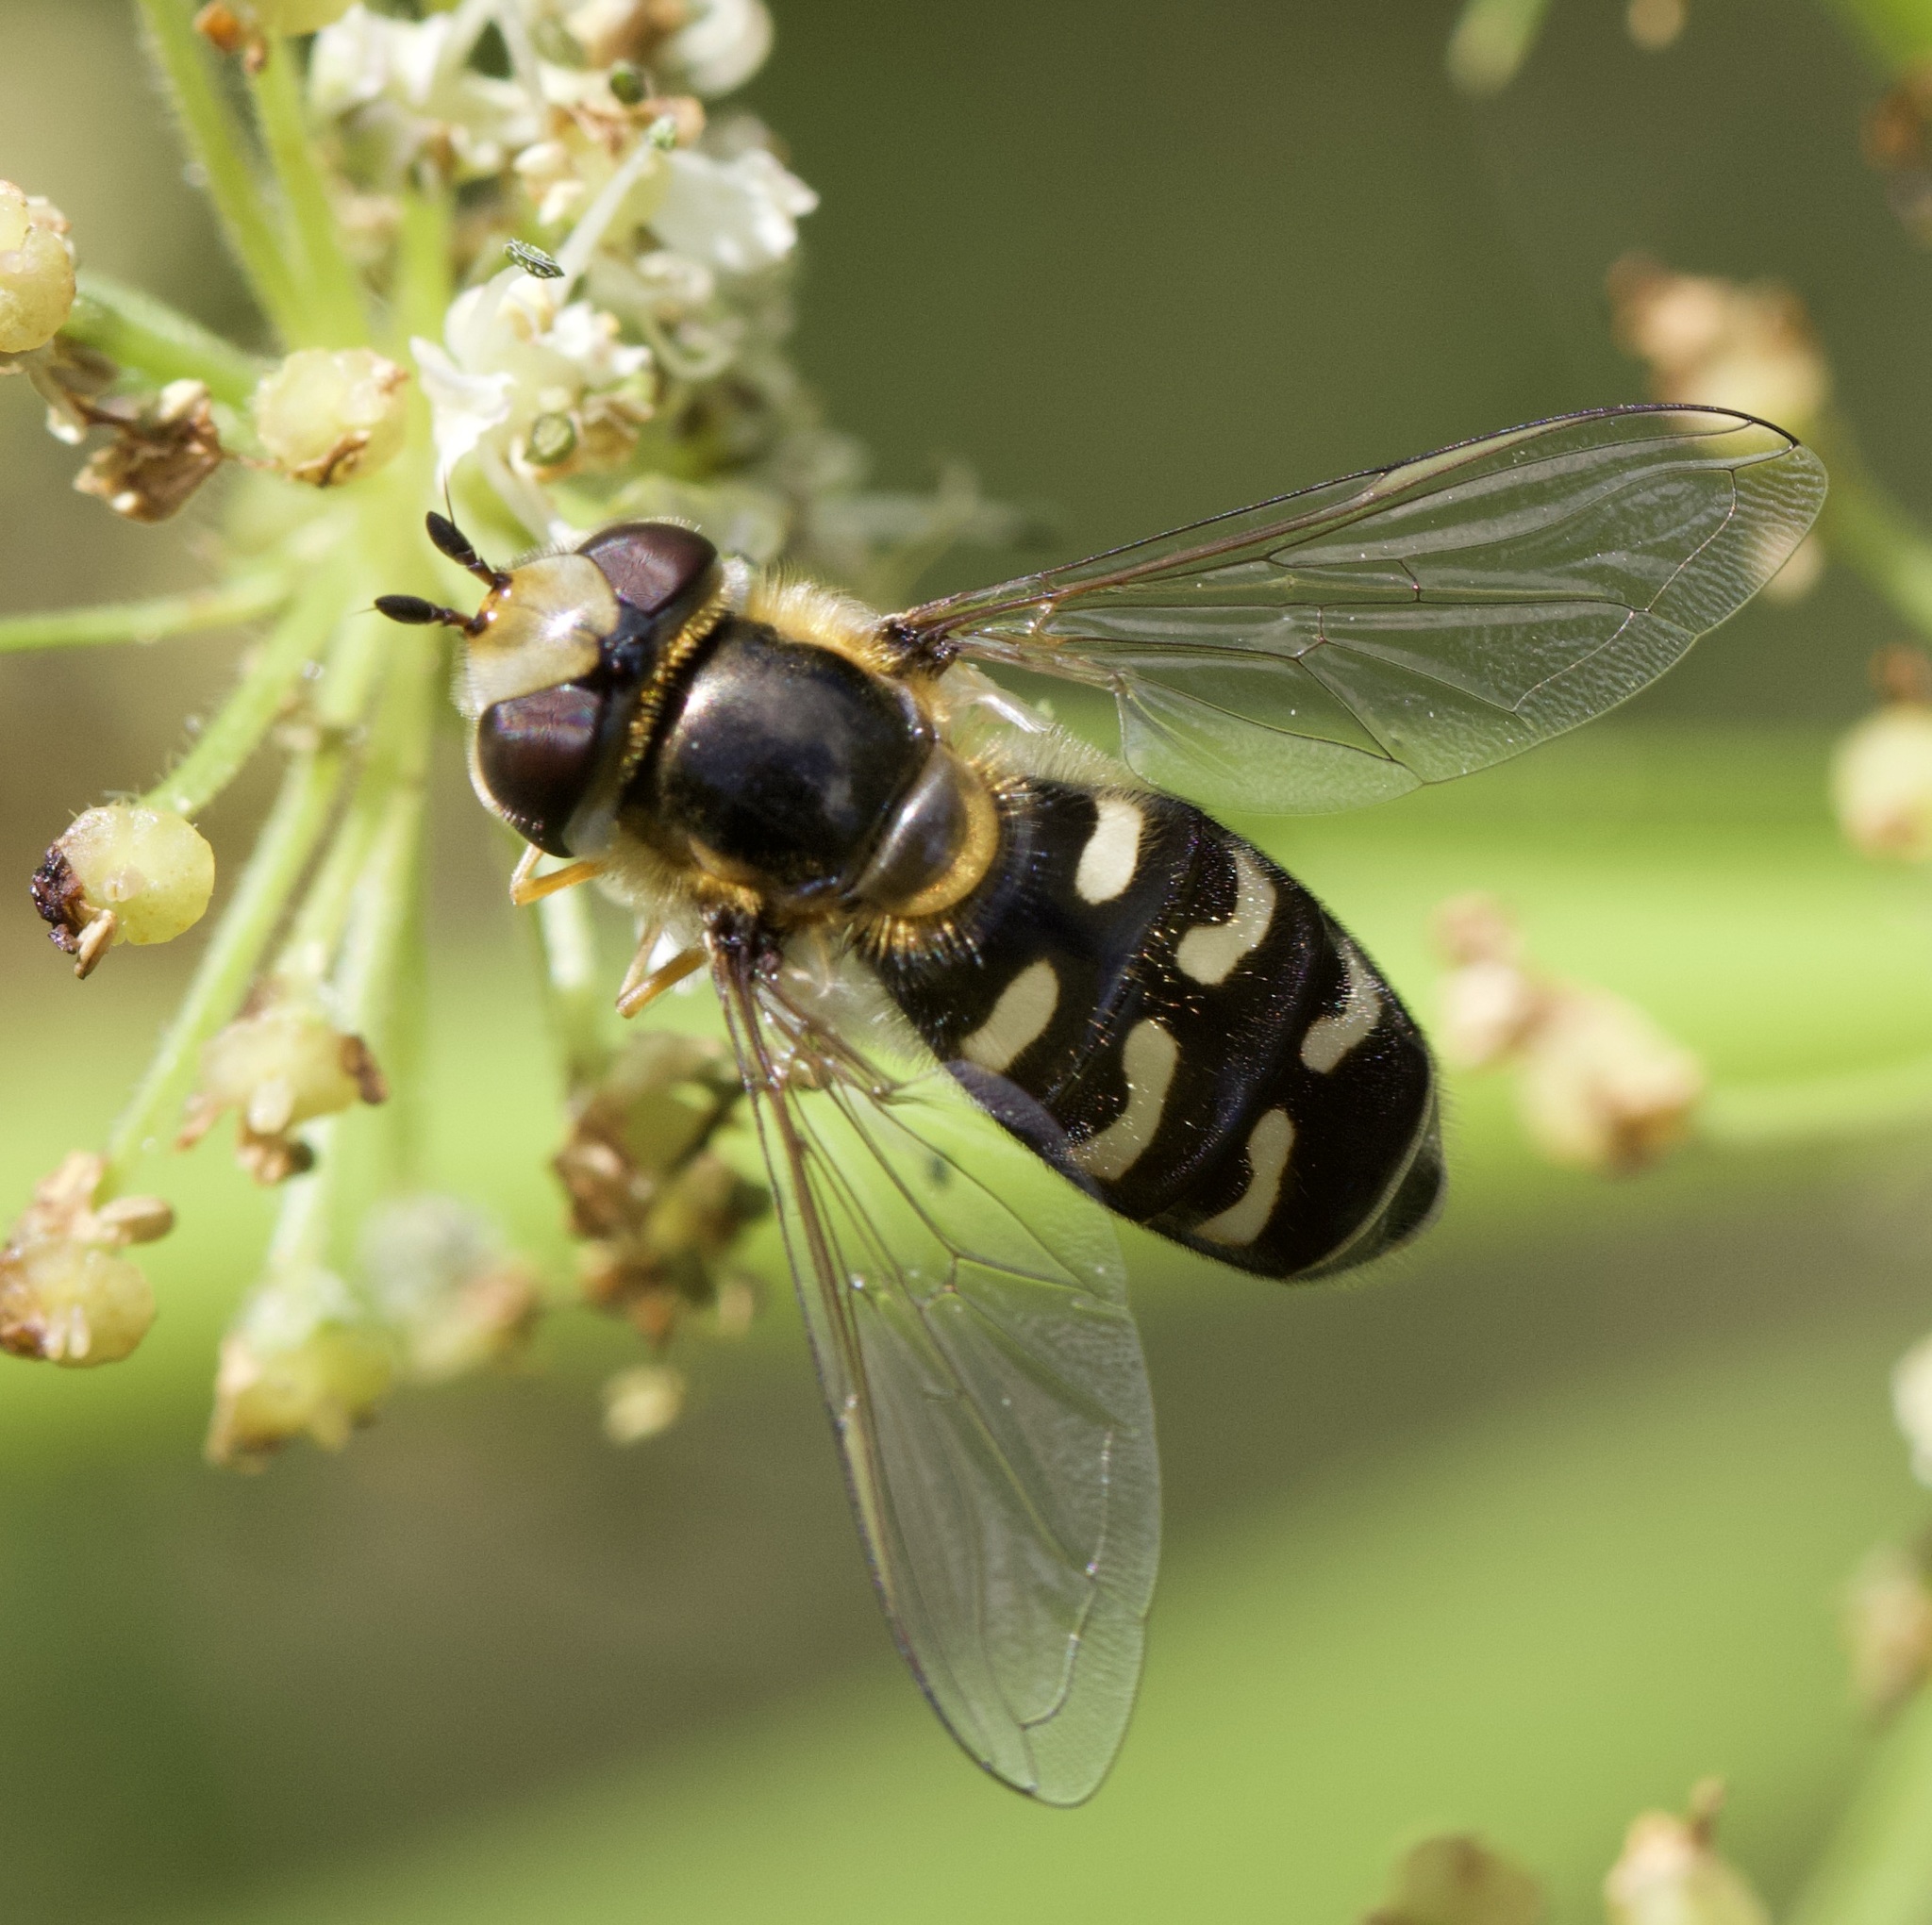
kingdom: Animalia
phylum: Arthropoda
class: Insecta
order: Diptera
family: Syrphidae
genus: Scaeva
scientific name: Scaeva pyrastri
